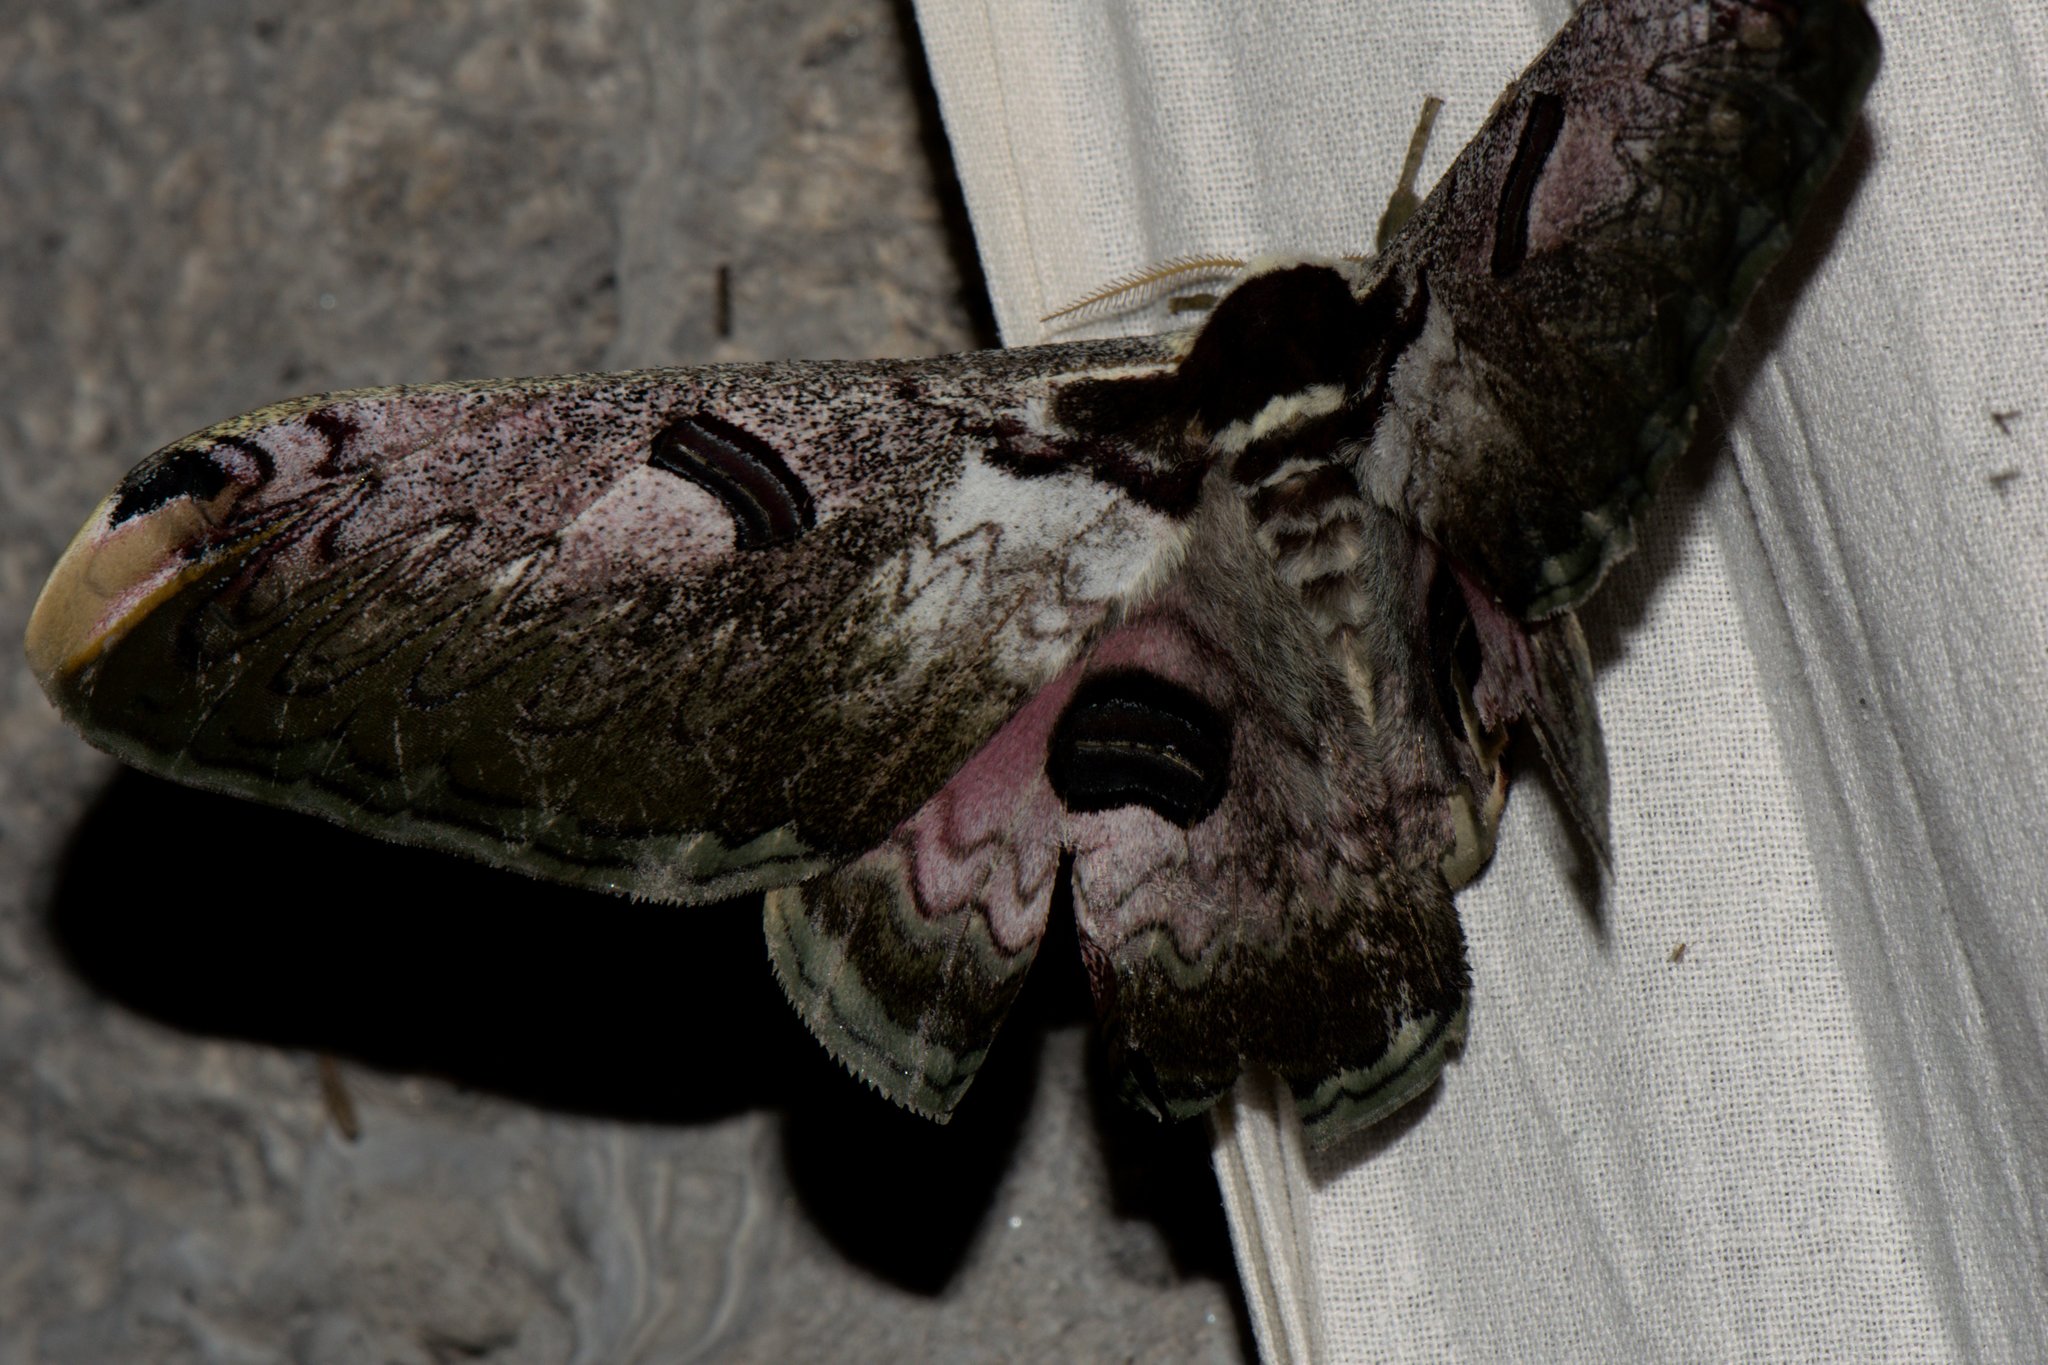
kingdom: Animalia
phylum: Arthropoda
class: Insecta
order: Lepidoptera
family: Saturniidae
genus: Saturnia
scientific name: Saturnia zuleika
